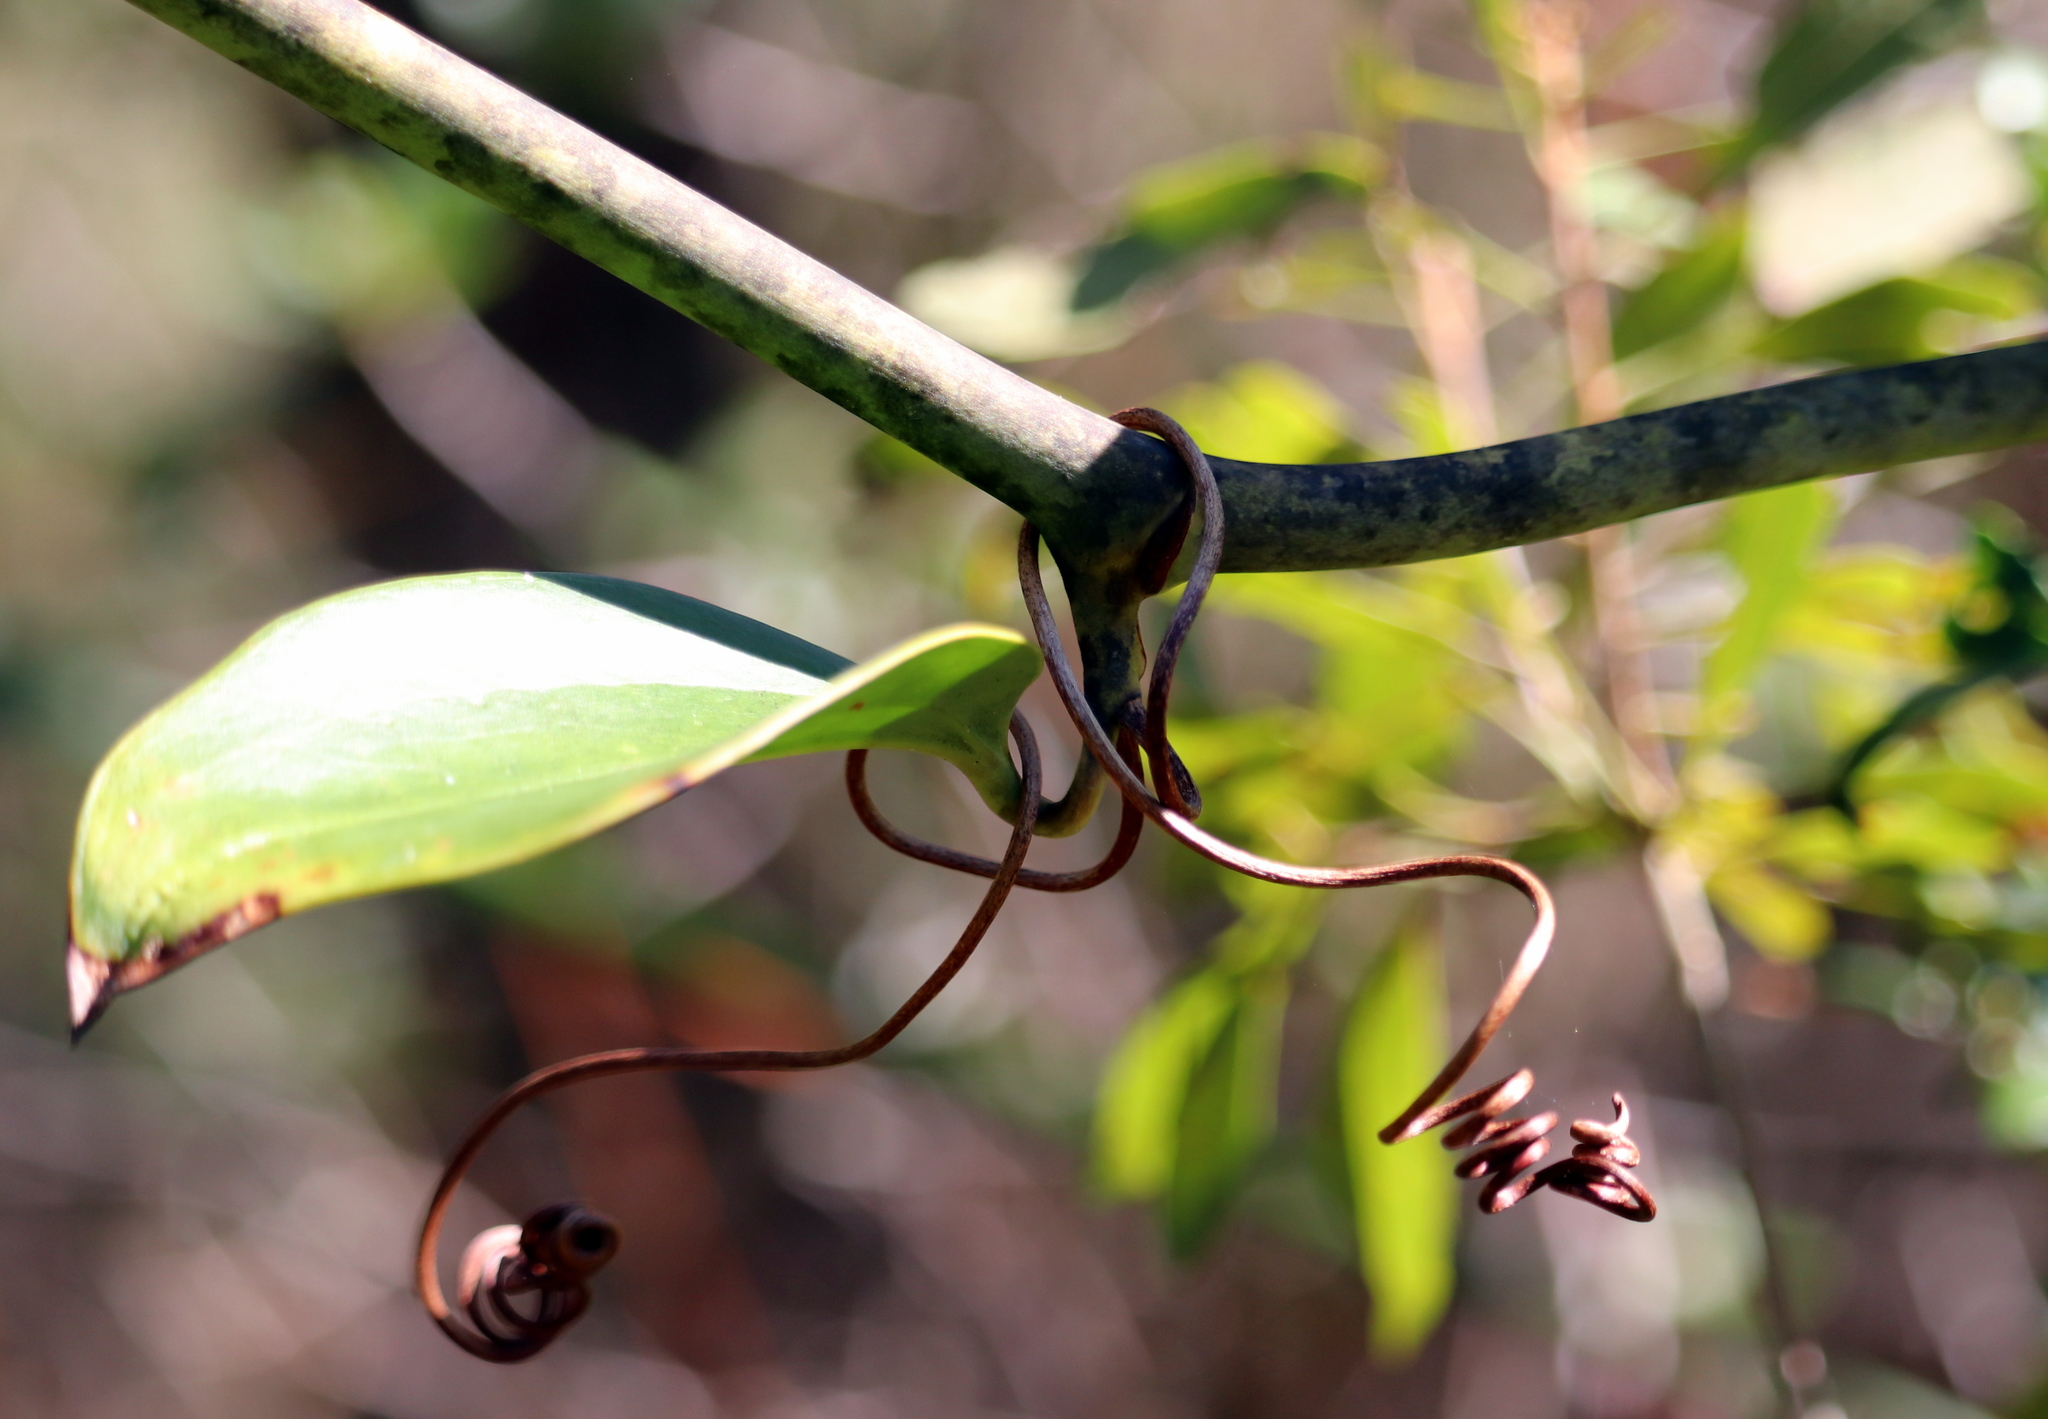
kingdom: Plantae
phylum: Tracheophyta
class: Liliopsida
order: Liliales
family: Smilacaceae
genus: Smilax
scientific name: Smilax laurifolia
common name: Bamboovine
